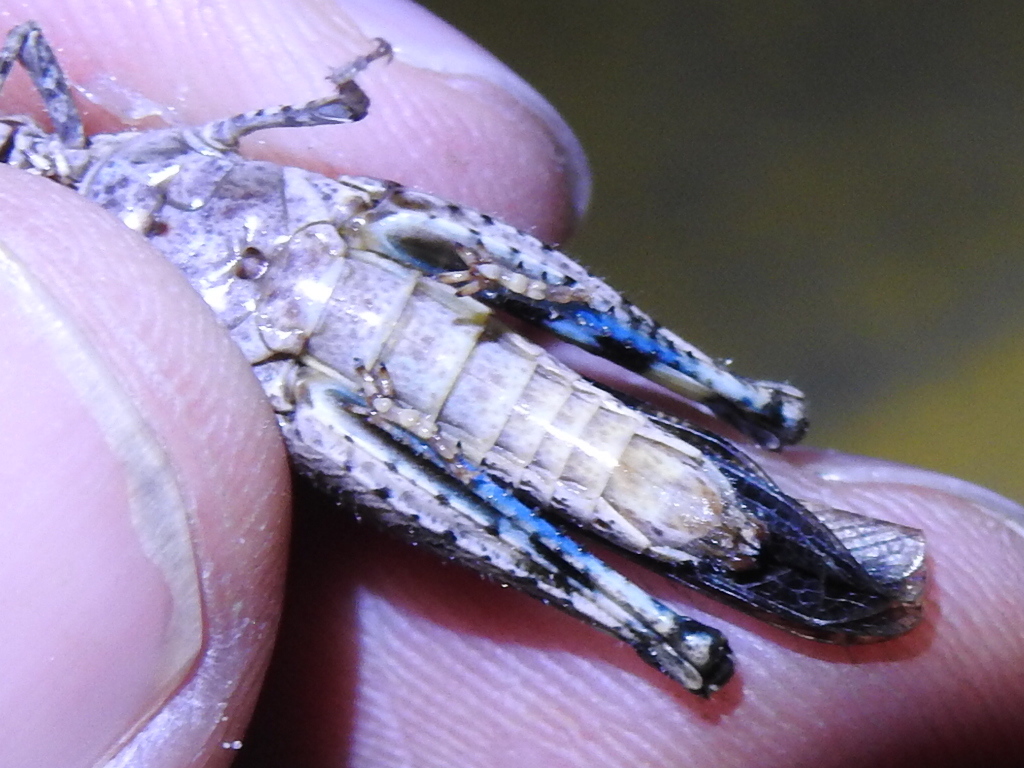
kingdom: Animalia
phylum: Arthropoda
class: Insecta
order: Orthoptera
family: Acrididae
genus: Nebulatettix
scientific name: Nebulatettix subgracilis
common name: Southwestern dusky grasshopper
